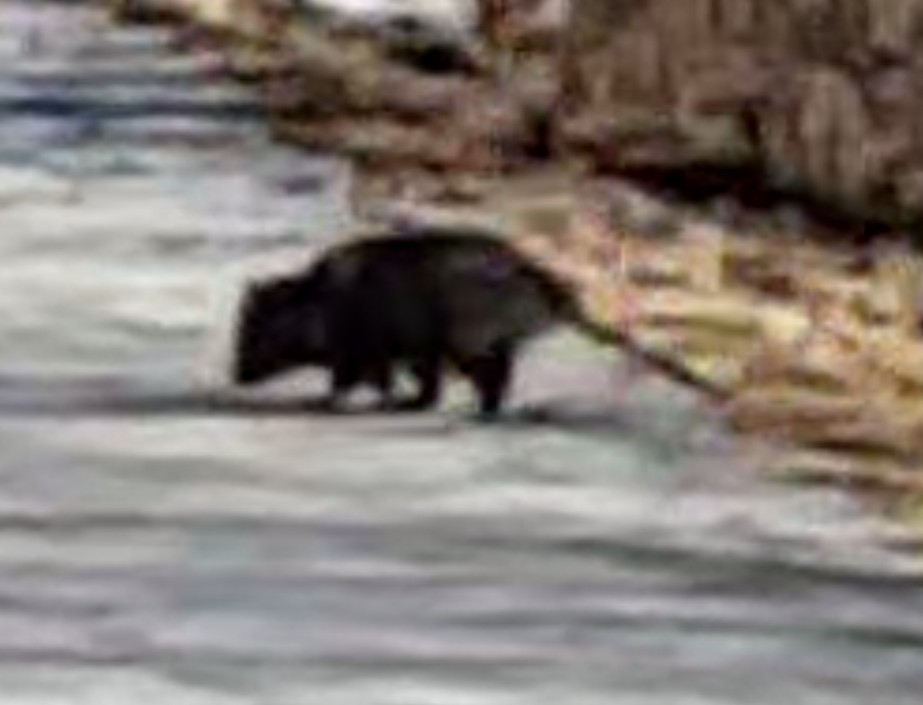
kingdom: Animalia
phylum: Chordata
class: Mammalia
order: Didelphimorphia
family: Didelphidae
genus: Didelphis
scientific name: Didelphis virginiana
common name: Virginia opossum
